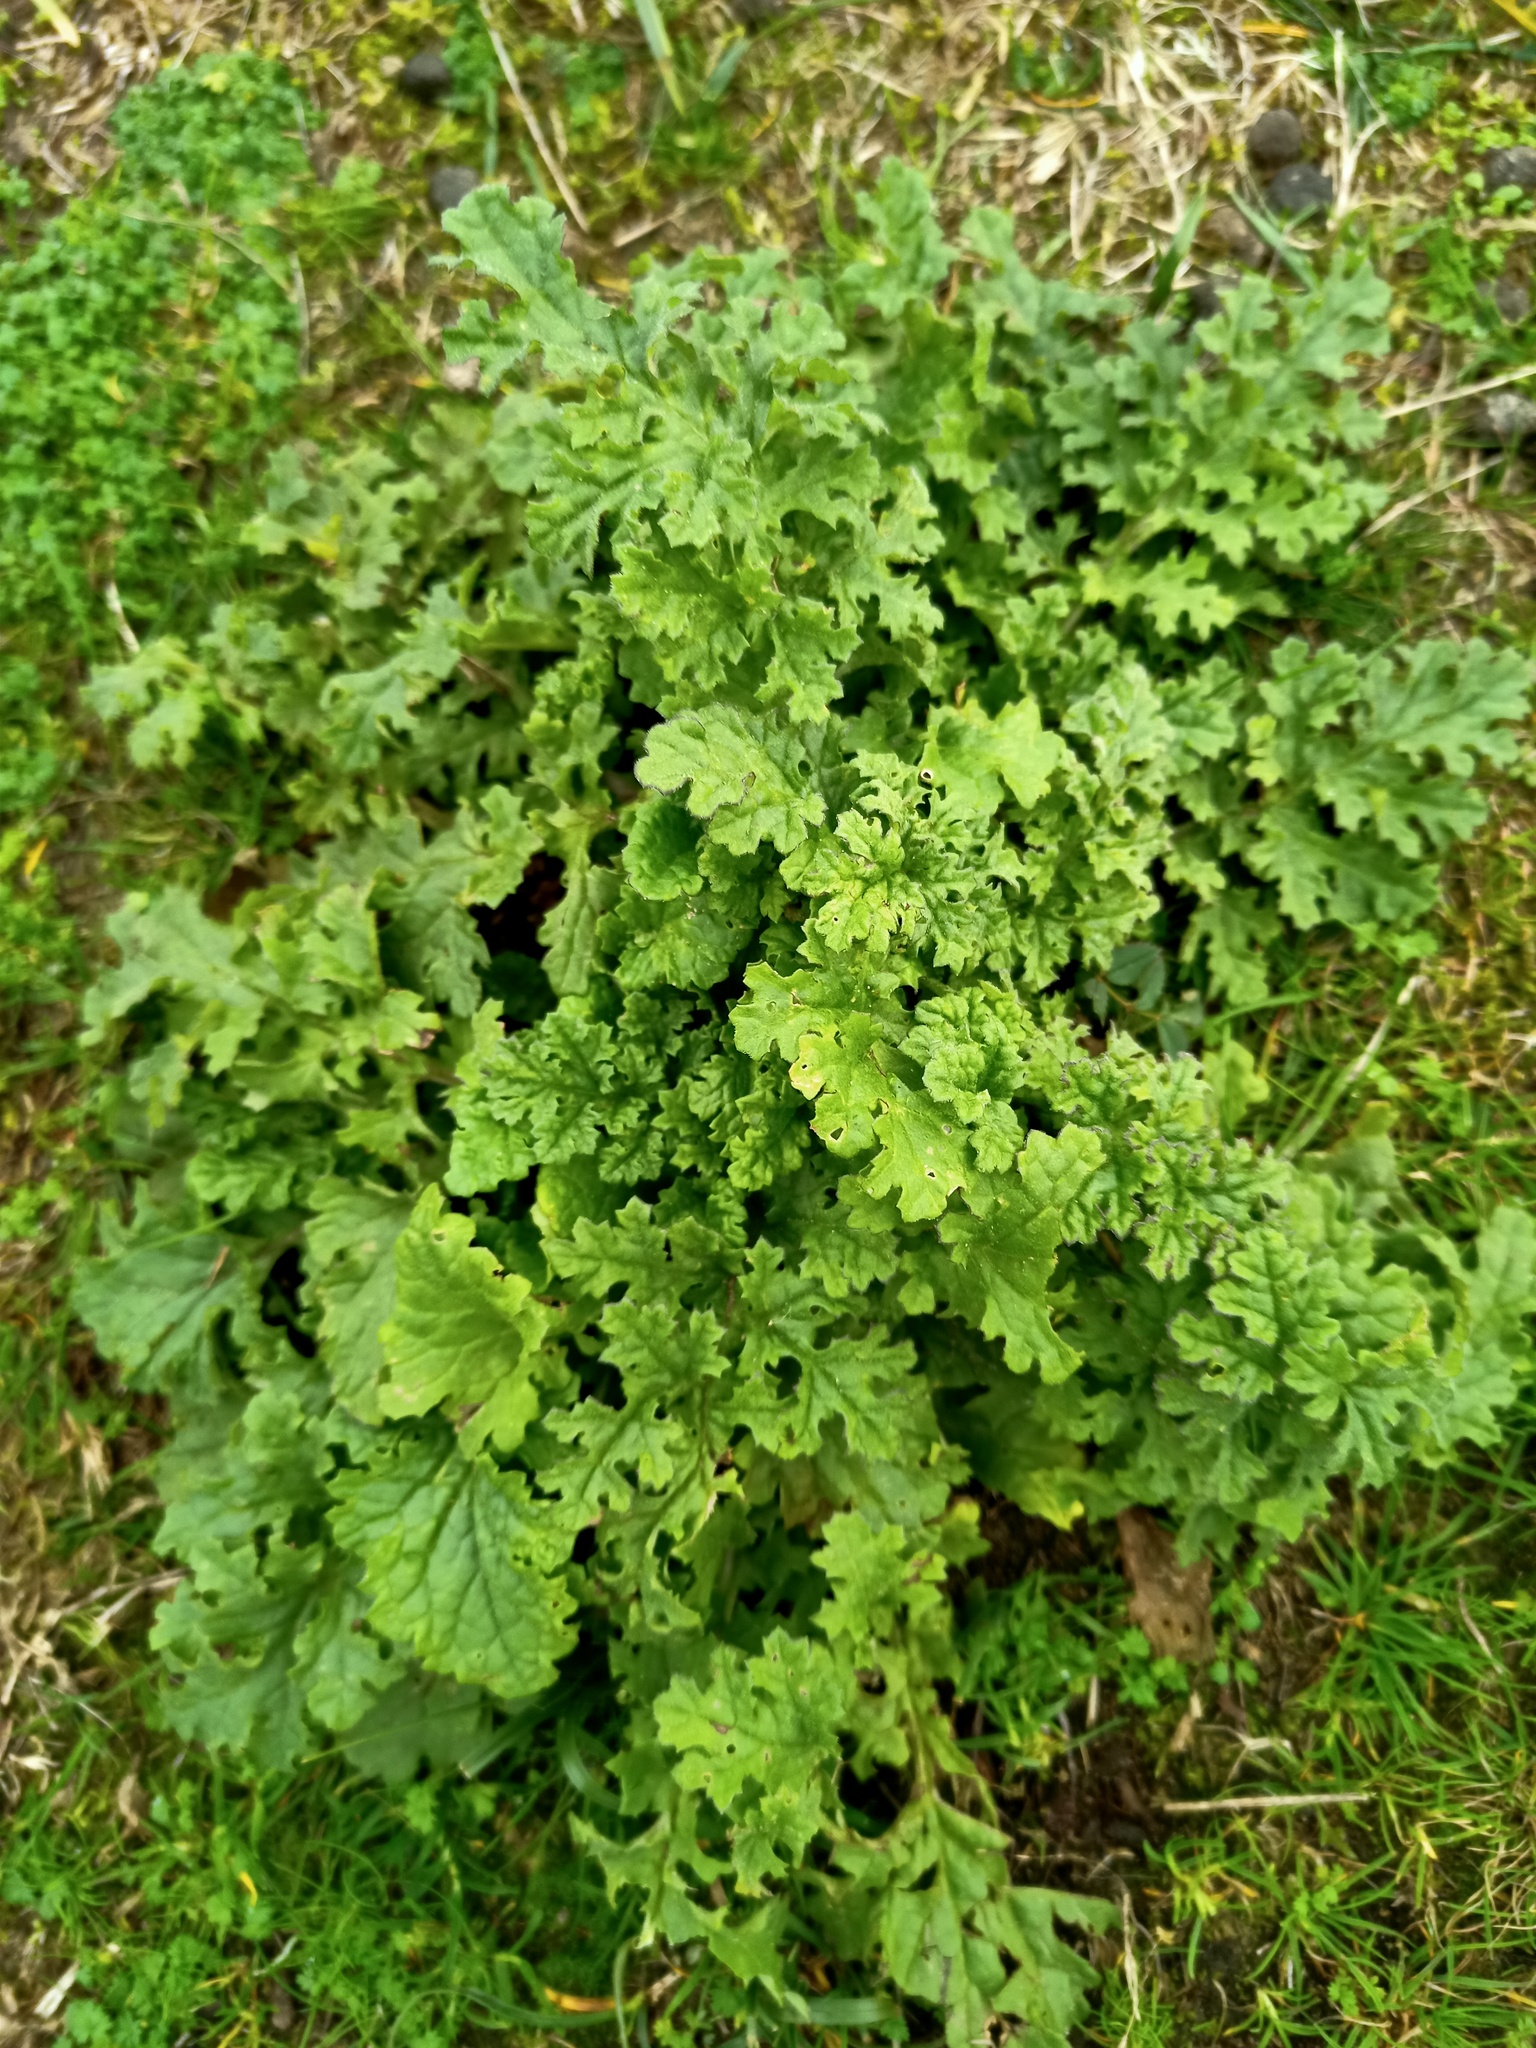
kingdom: Plantae
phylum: Tracheophyta
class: Magnoliopsida
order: Asterales
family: Asteraceae
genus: Jacobaea
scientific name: Jacobaea vulgaris
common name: Stinking willie
